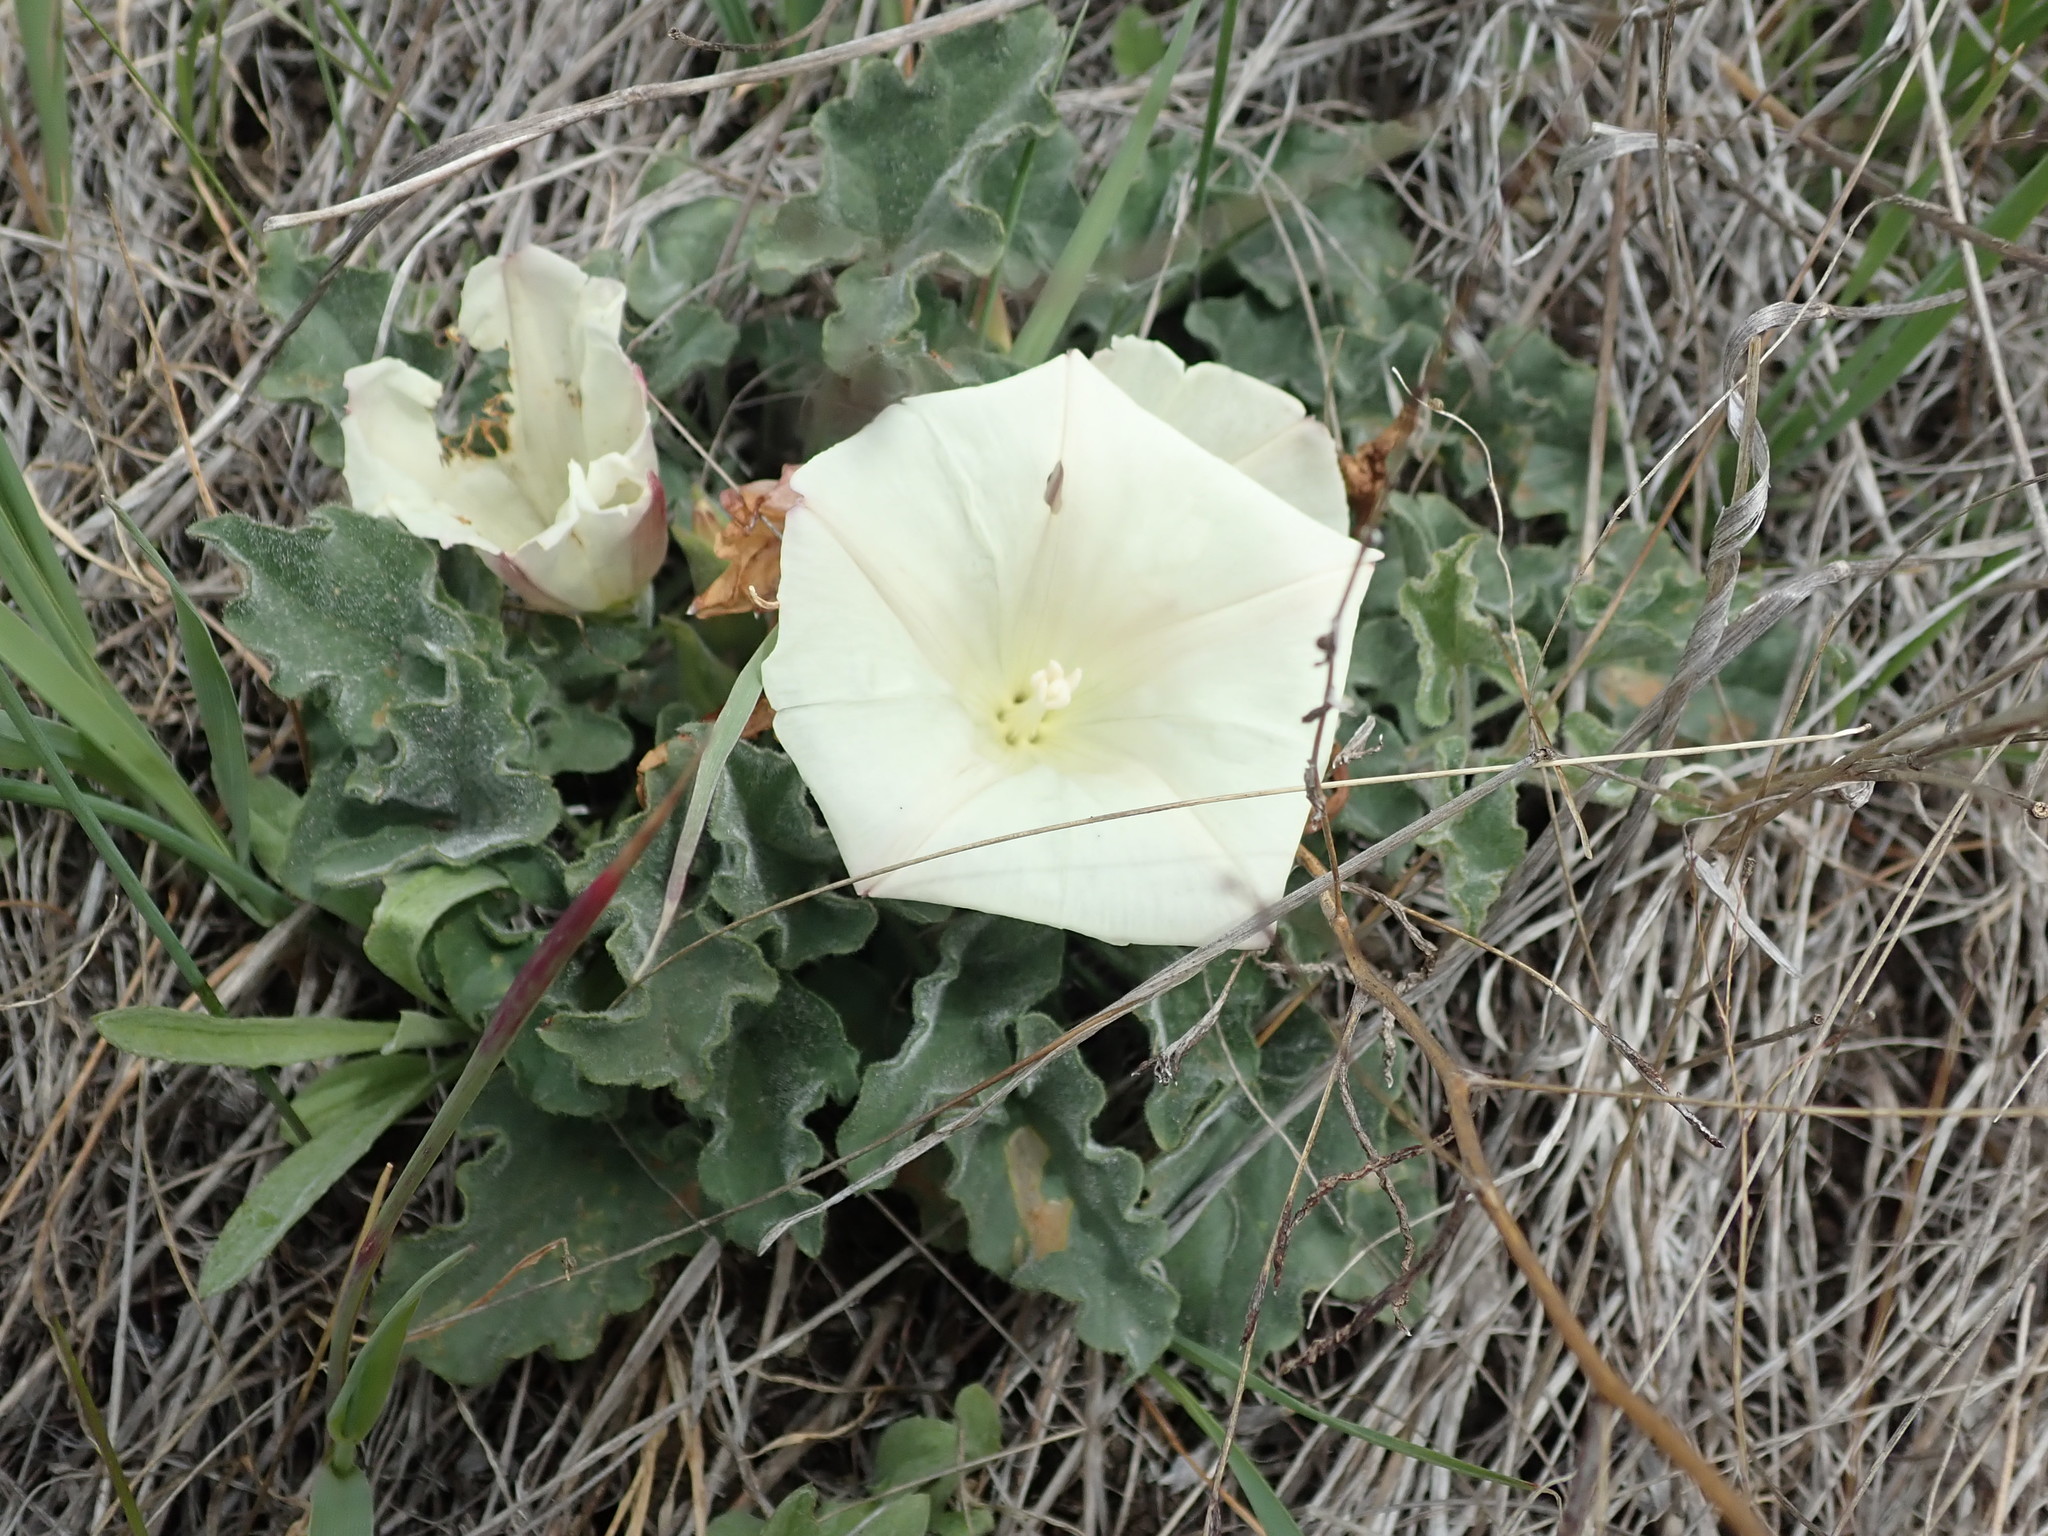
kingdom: Plantae
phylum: Tracheophyta
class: Magnoliopsida
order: Solanales
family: Convolvulaceae
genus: Calystegia
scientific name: Calystegia collina
